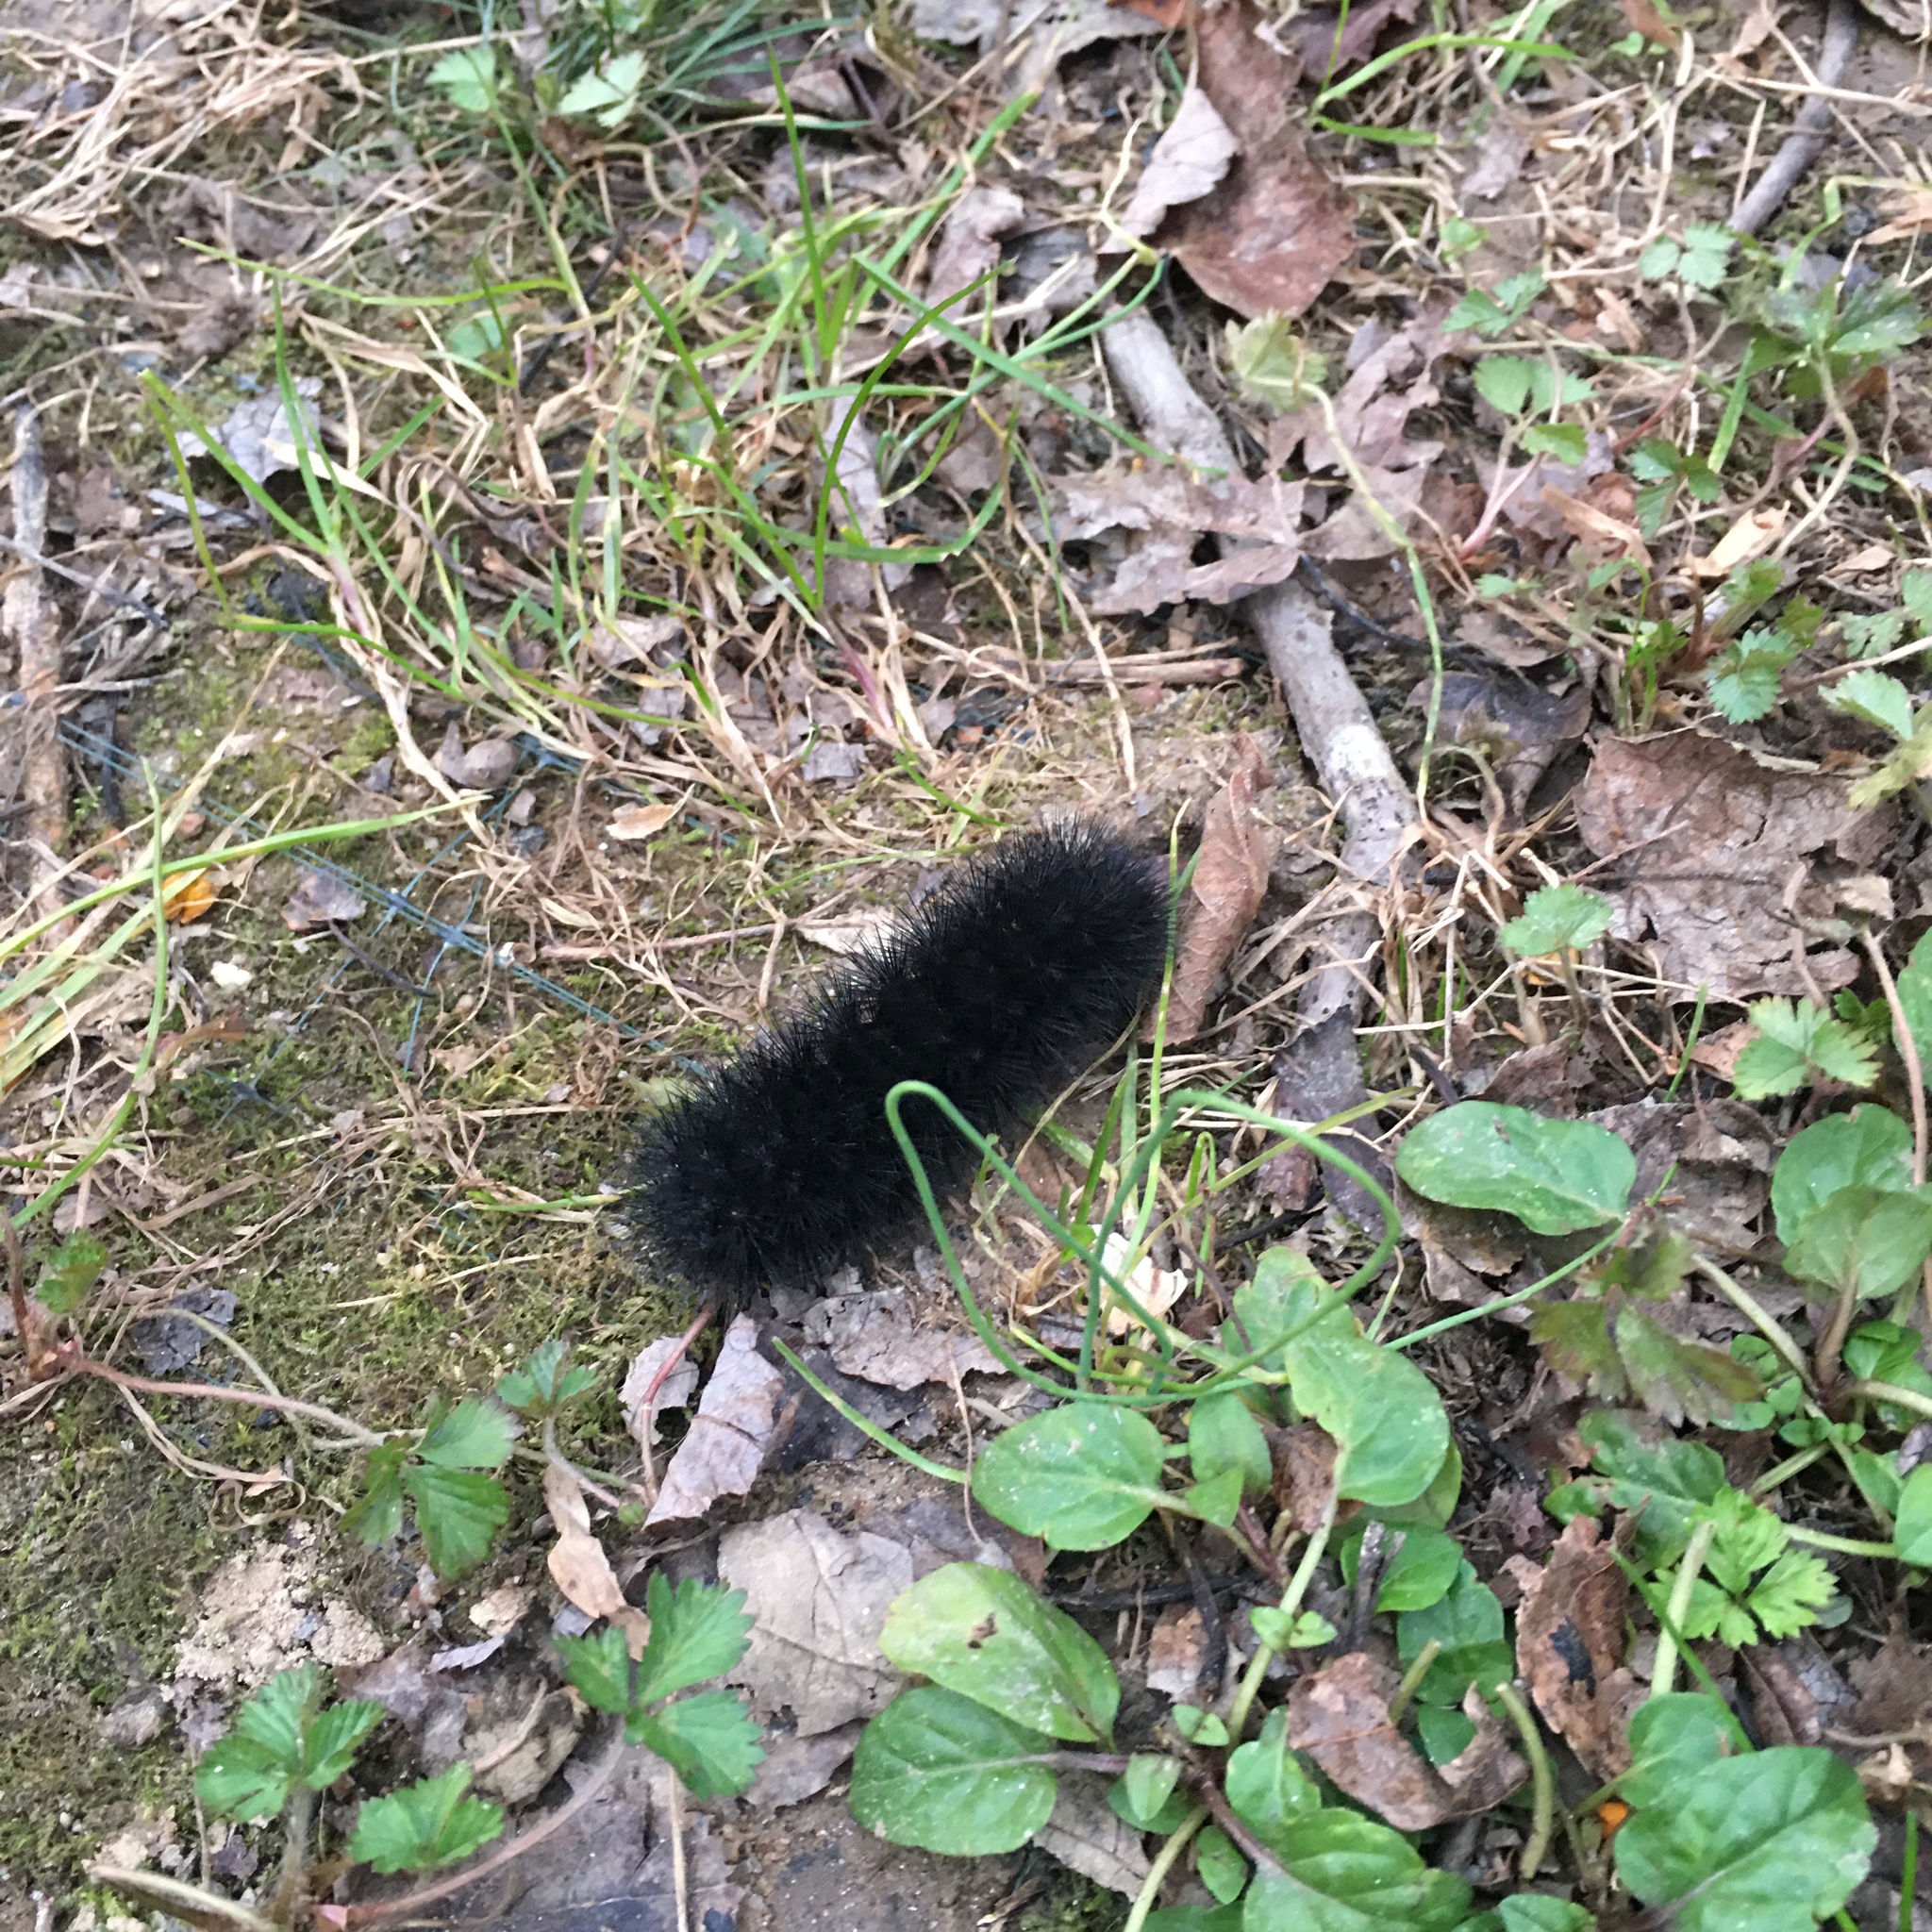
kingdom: Animalia
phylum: Arthropoda
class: Insecta
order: Lepidoptera
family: Erebidae
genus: Hypercompe
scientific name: Hypercompe scribonia
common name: Giant leopard moth
